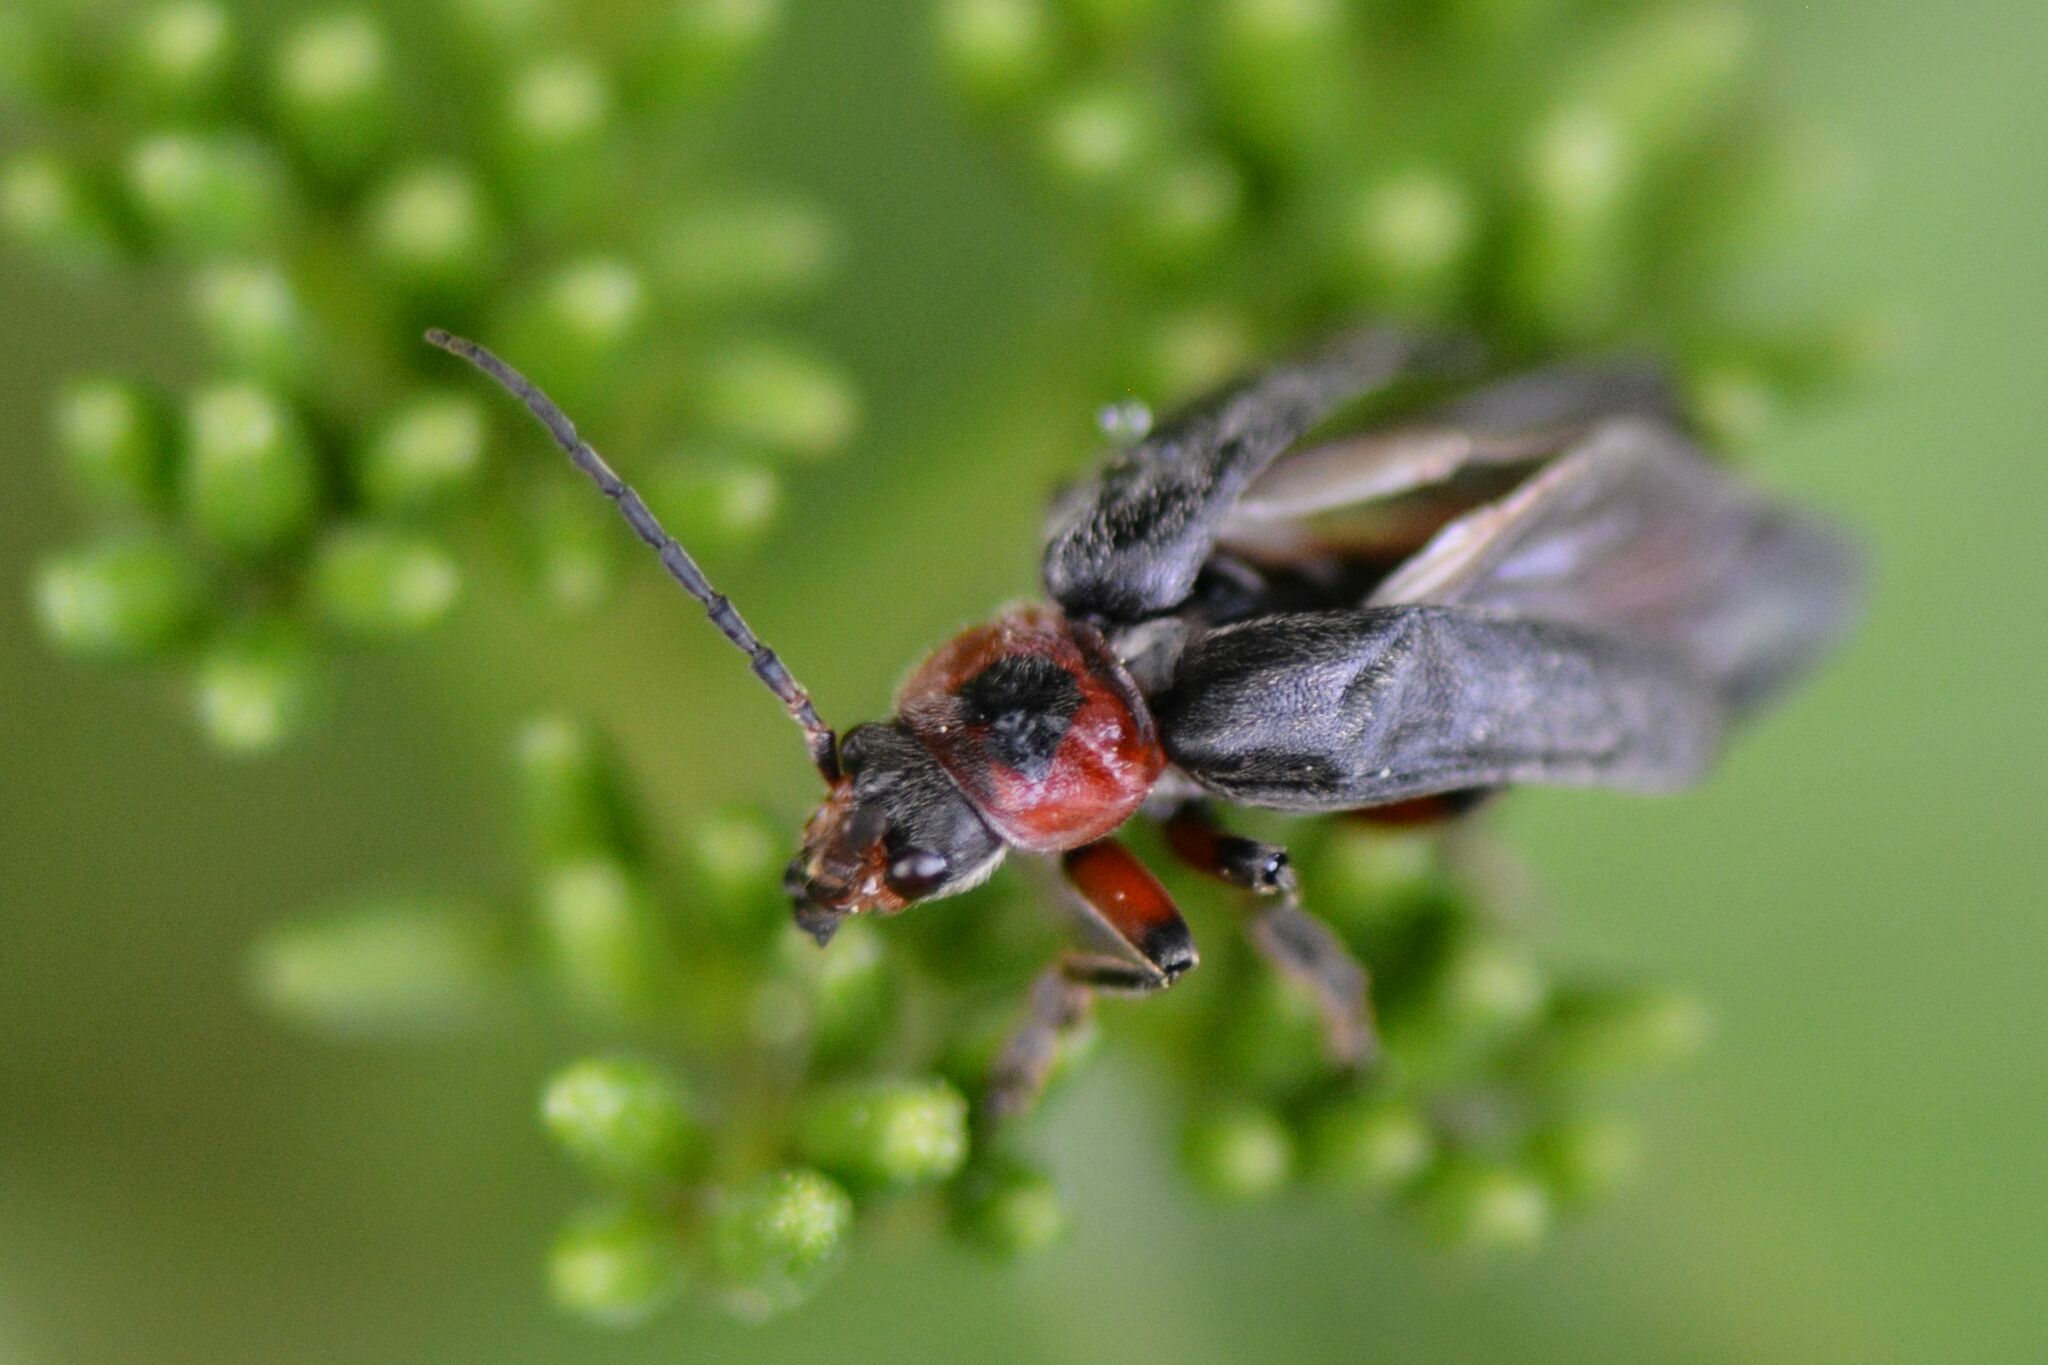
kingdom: Animalia
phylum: Arthropoda
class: Insecta
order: Coleoptera
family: Cantharidae
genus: Cantharis
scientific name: Cantharis rustica
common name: Soldier beetle
